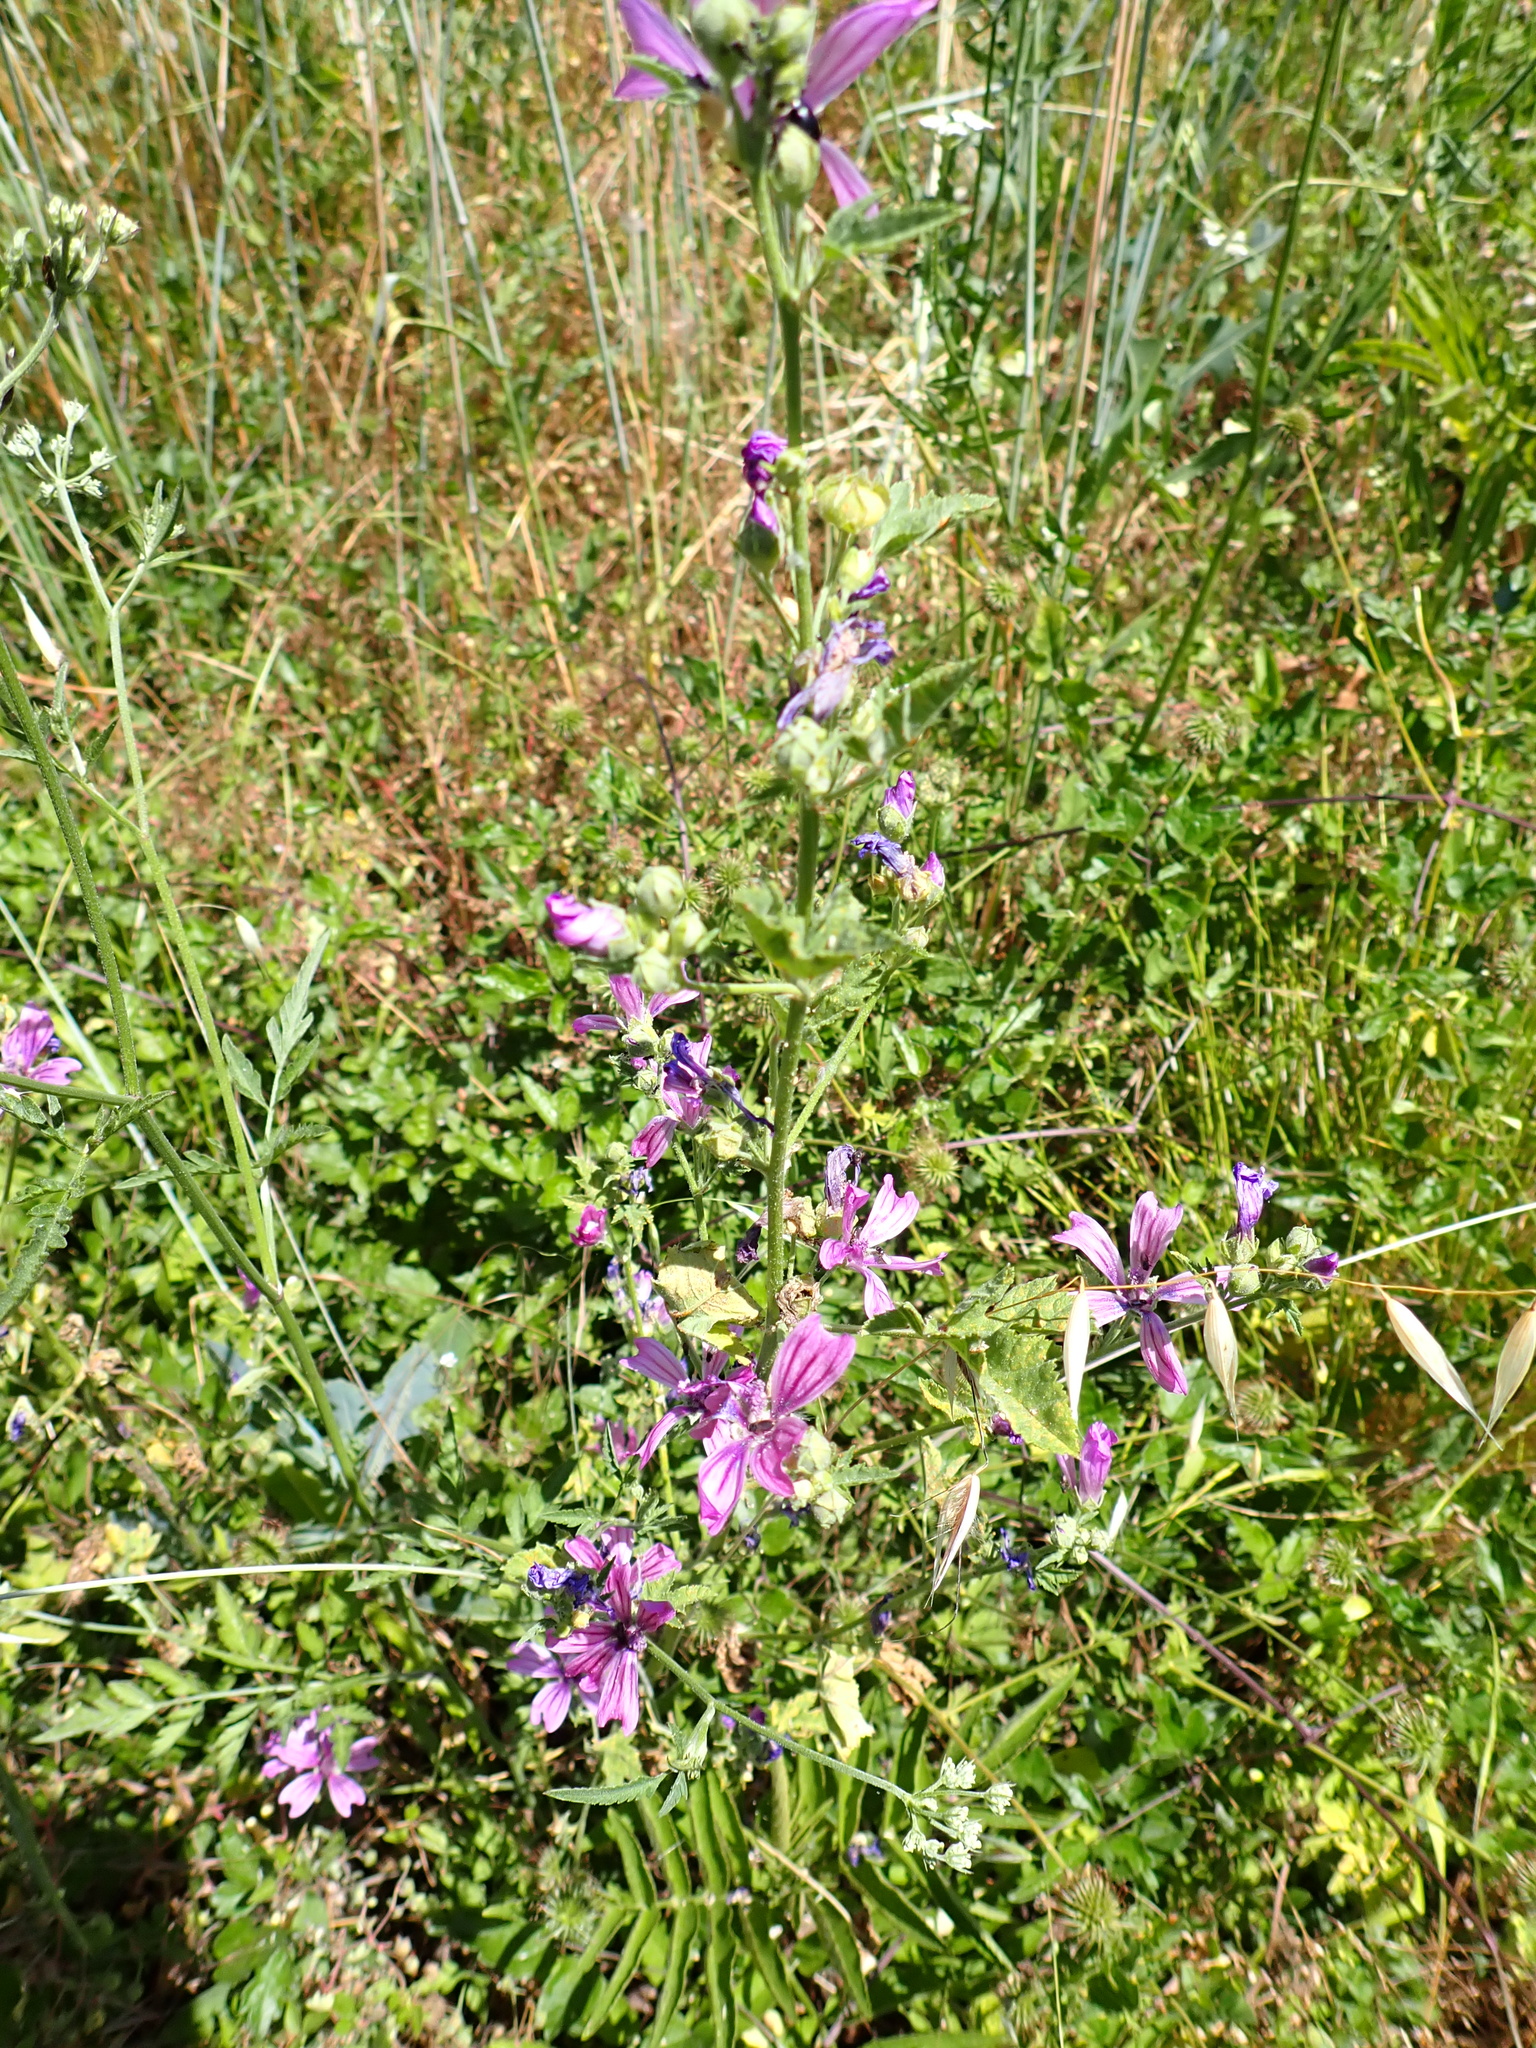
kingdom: Plantae
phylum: Tracheophyta
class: Magnoliopsida
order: Malvales
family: Malvaceae
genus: Malva
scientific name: Malva sylvestris
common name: Common mallow
